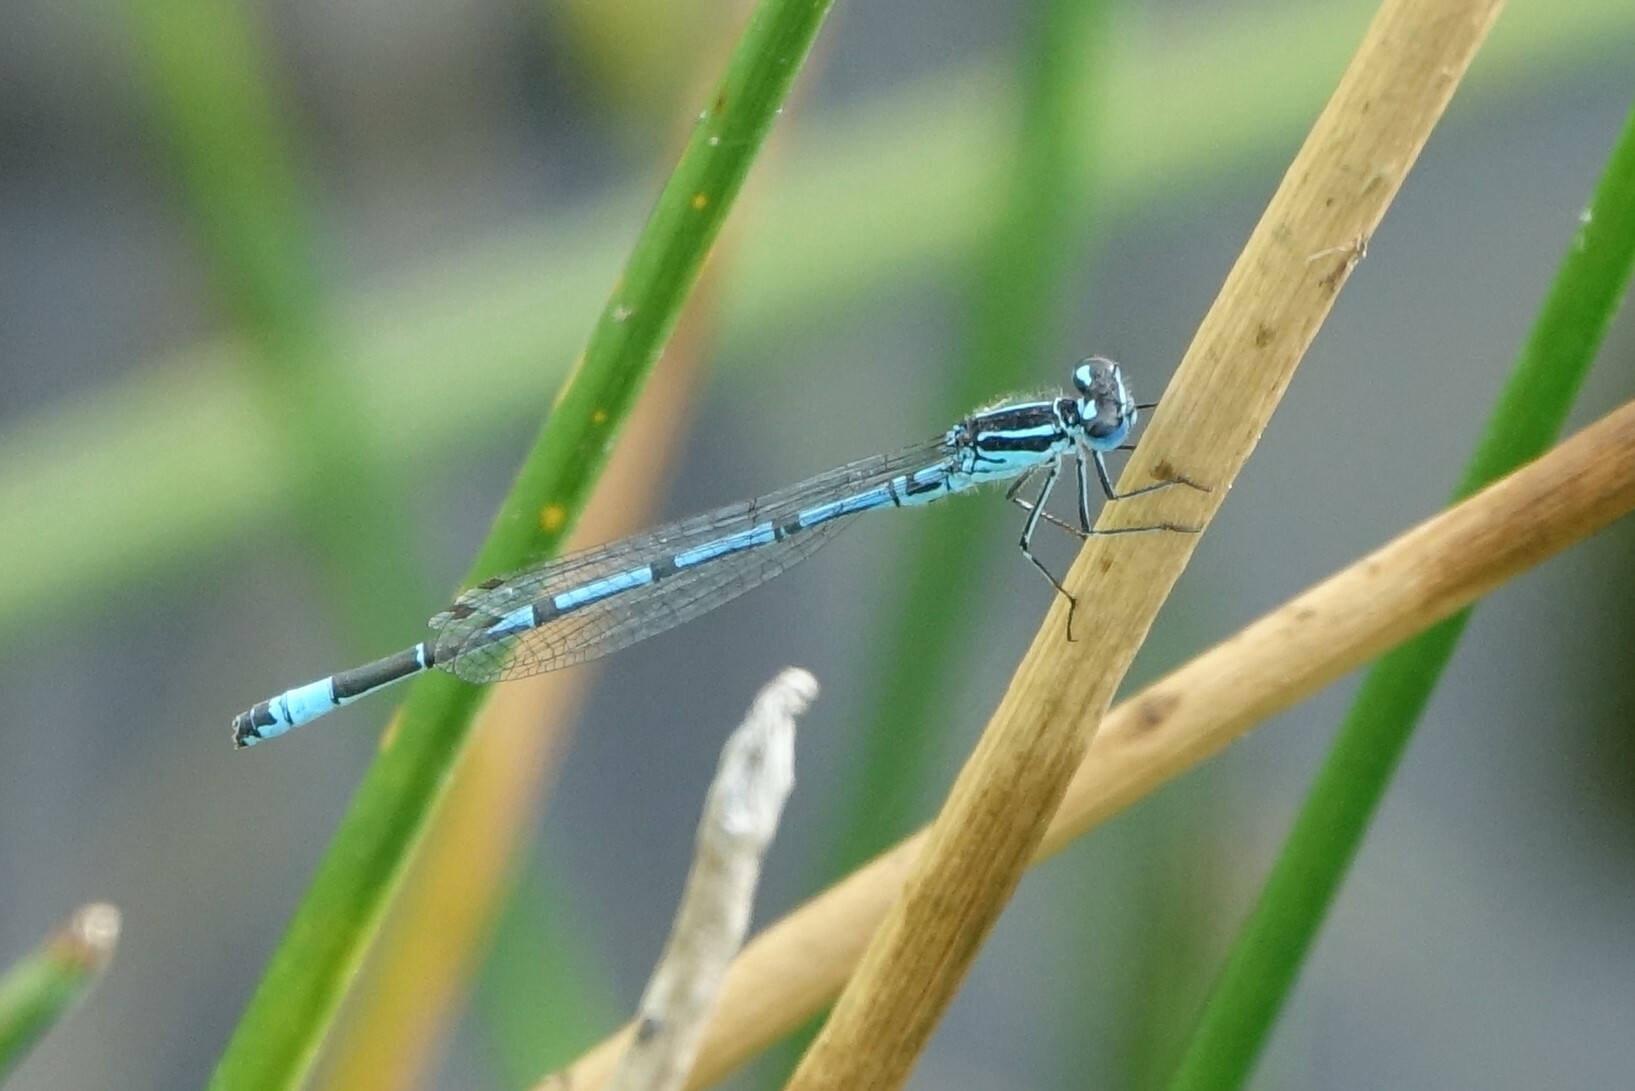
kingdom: Animalia
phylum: Arthropoda
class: Insecta
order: Odonata
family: Coenagrionidae
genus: Coenagrion
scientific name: Coenagrion puella
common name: Azure damselfly
